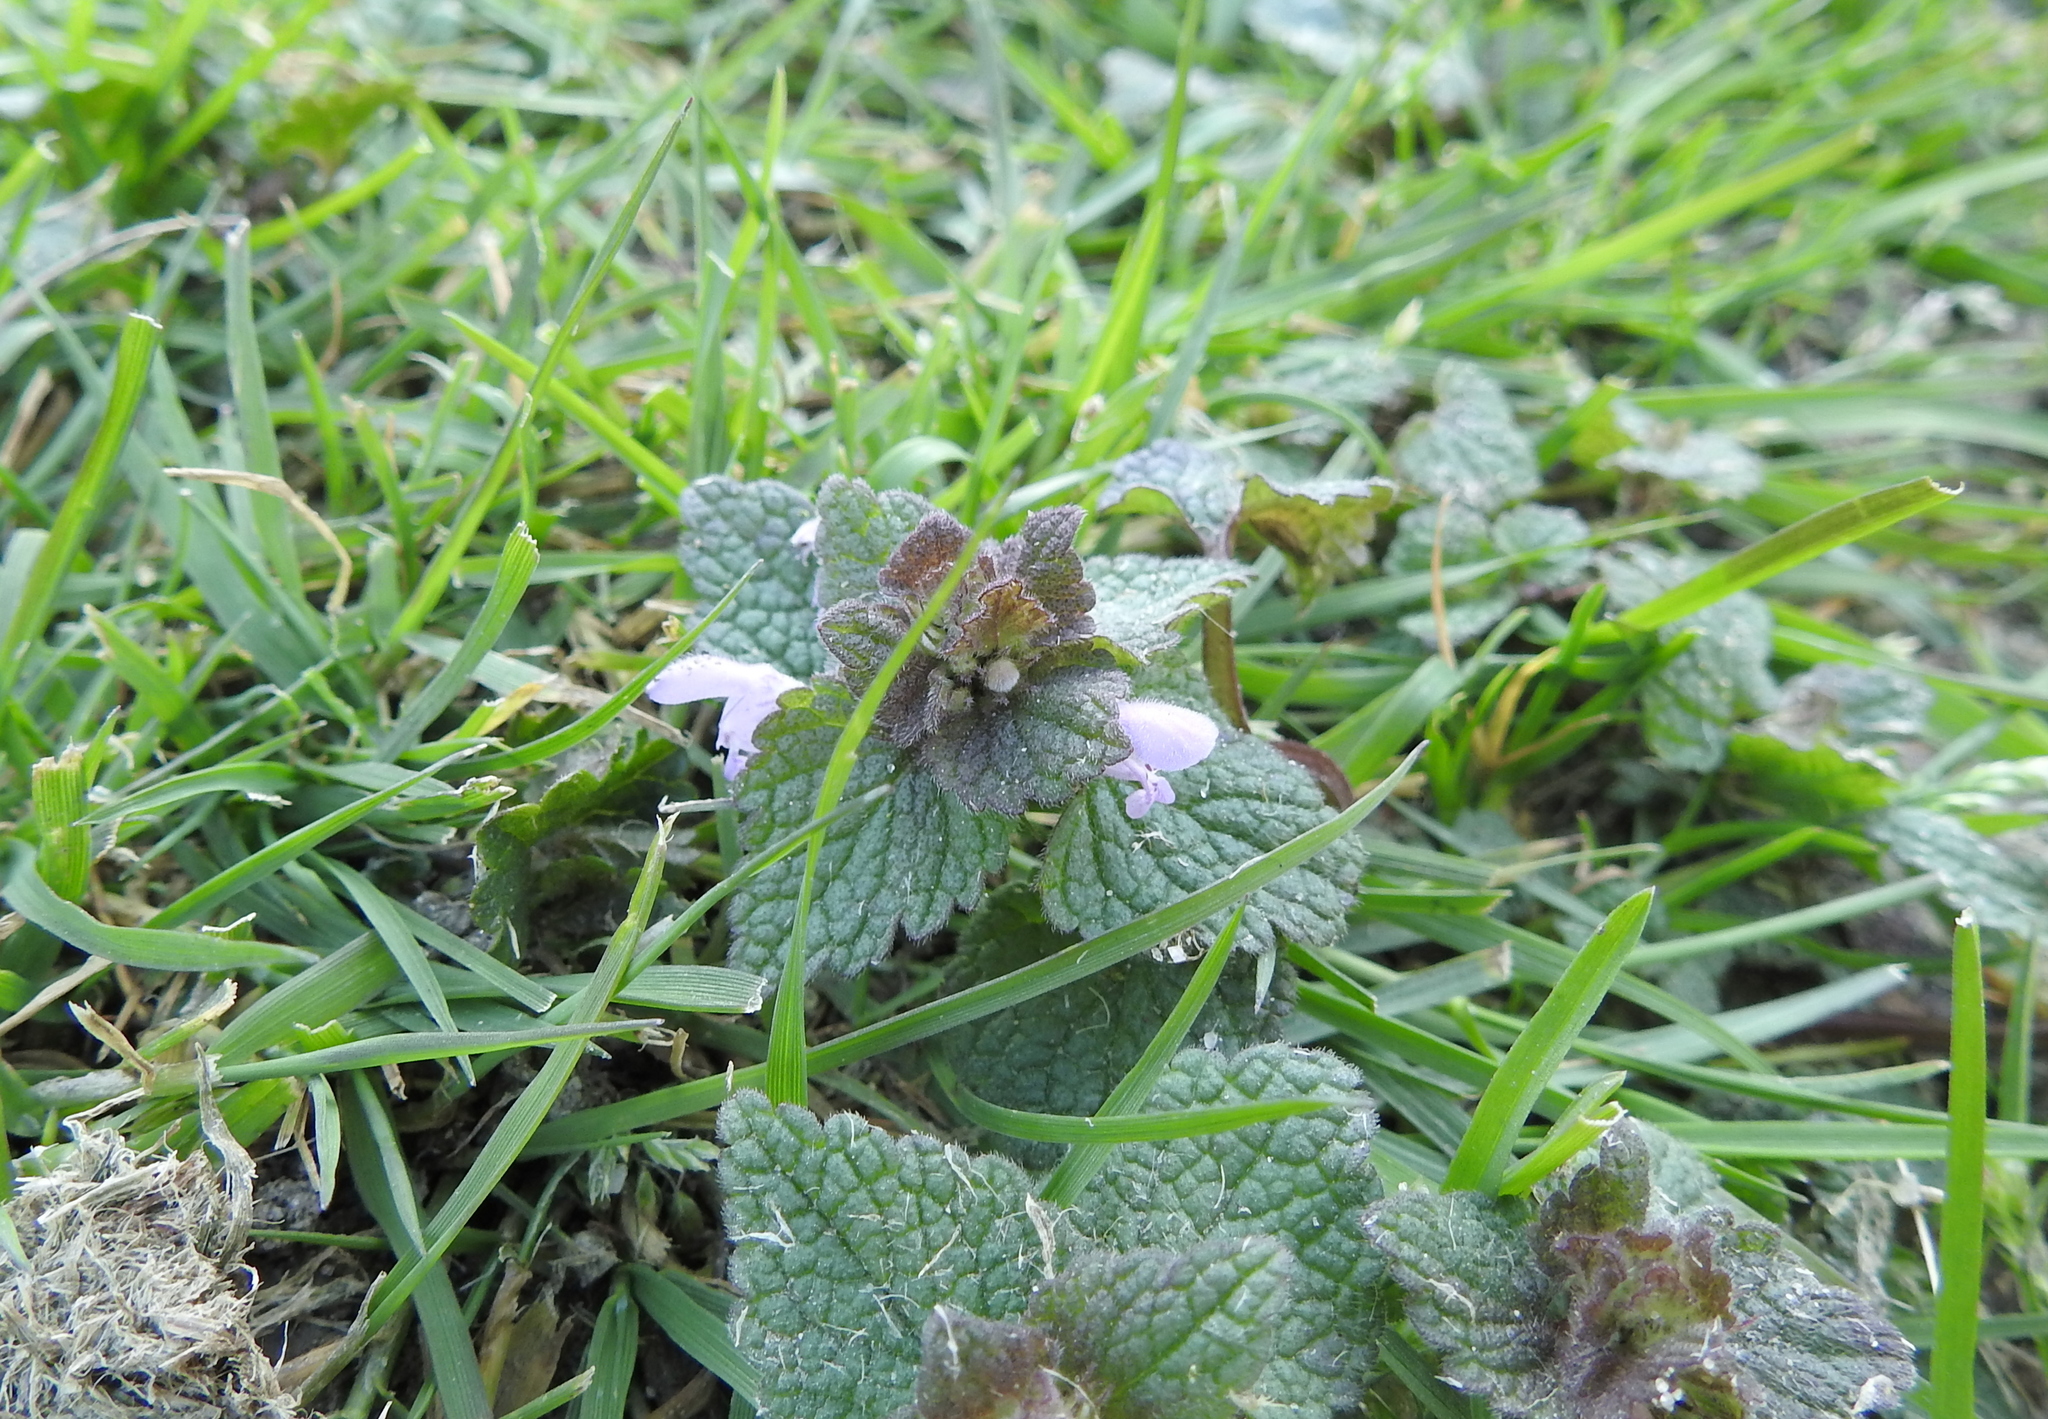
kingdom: Plantae
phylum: Tracheophyta
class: Magnoliopsida
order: Lamiales
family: Lamiaceae
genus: Lamium
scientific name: Lamium purpureum
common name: Red dead-nettle
